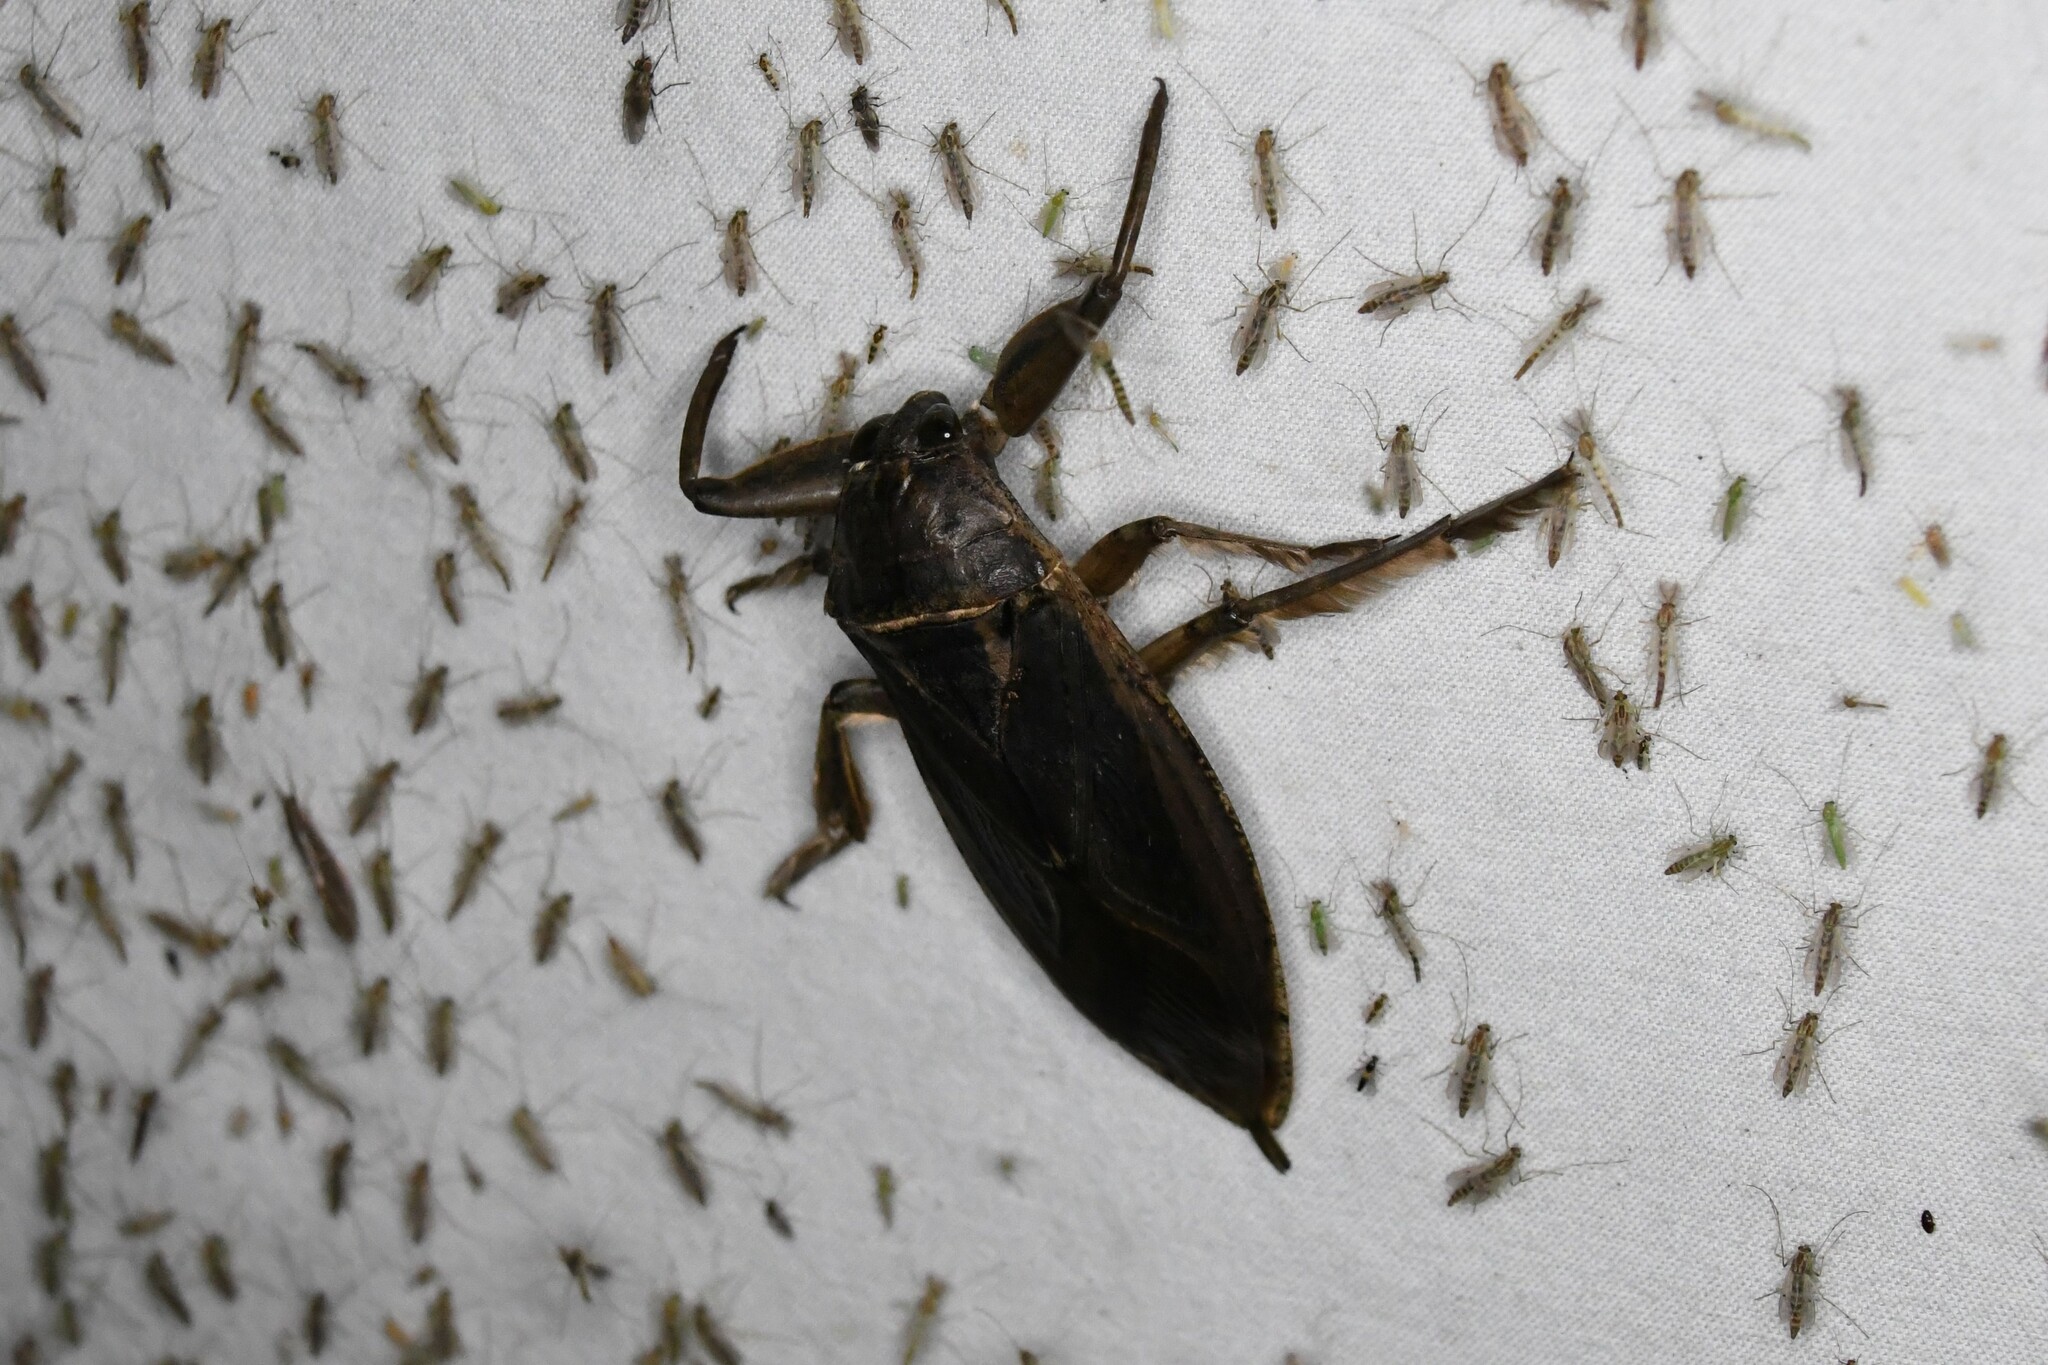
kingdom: Animalia
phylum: Arthropoda
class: Insecta
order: Hemiptera
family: Belostomatidae
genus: Lethocerus
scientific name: Lethocerus americanus
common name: Giant water bug
